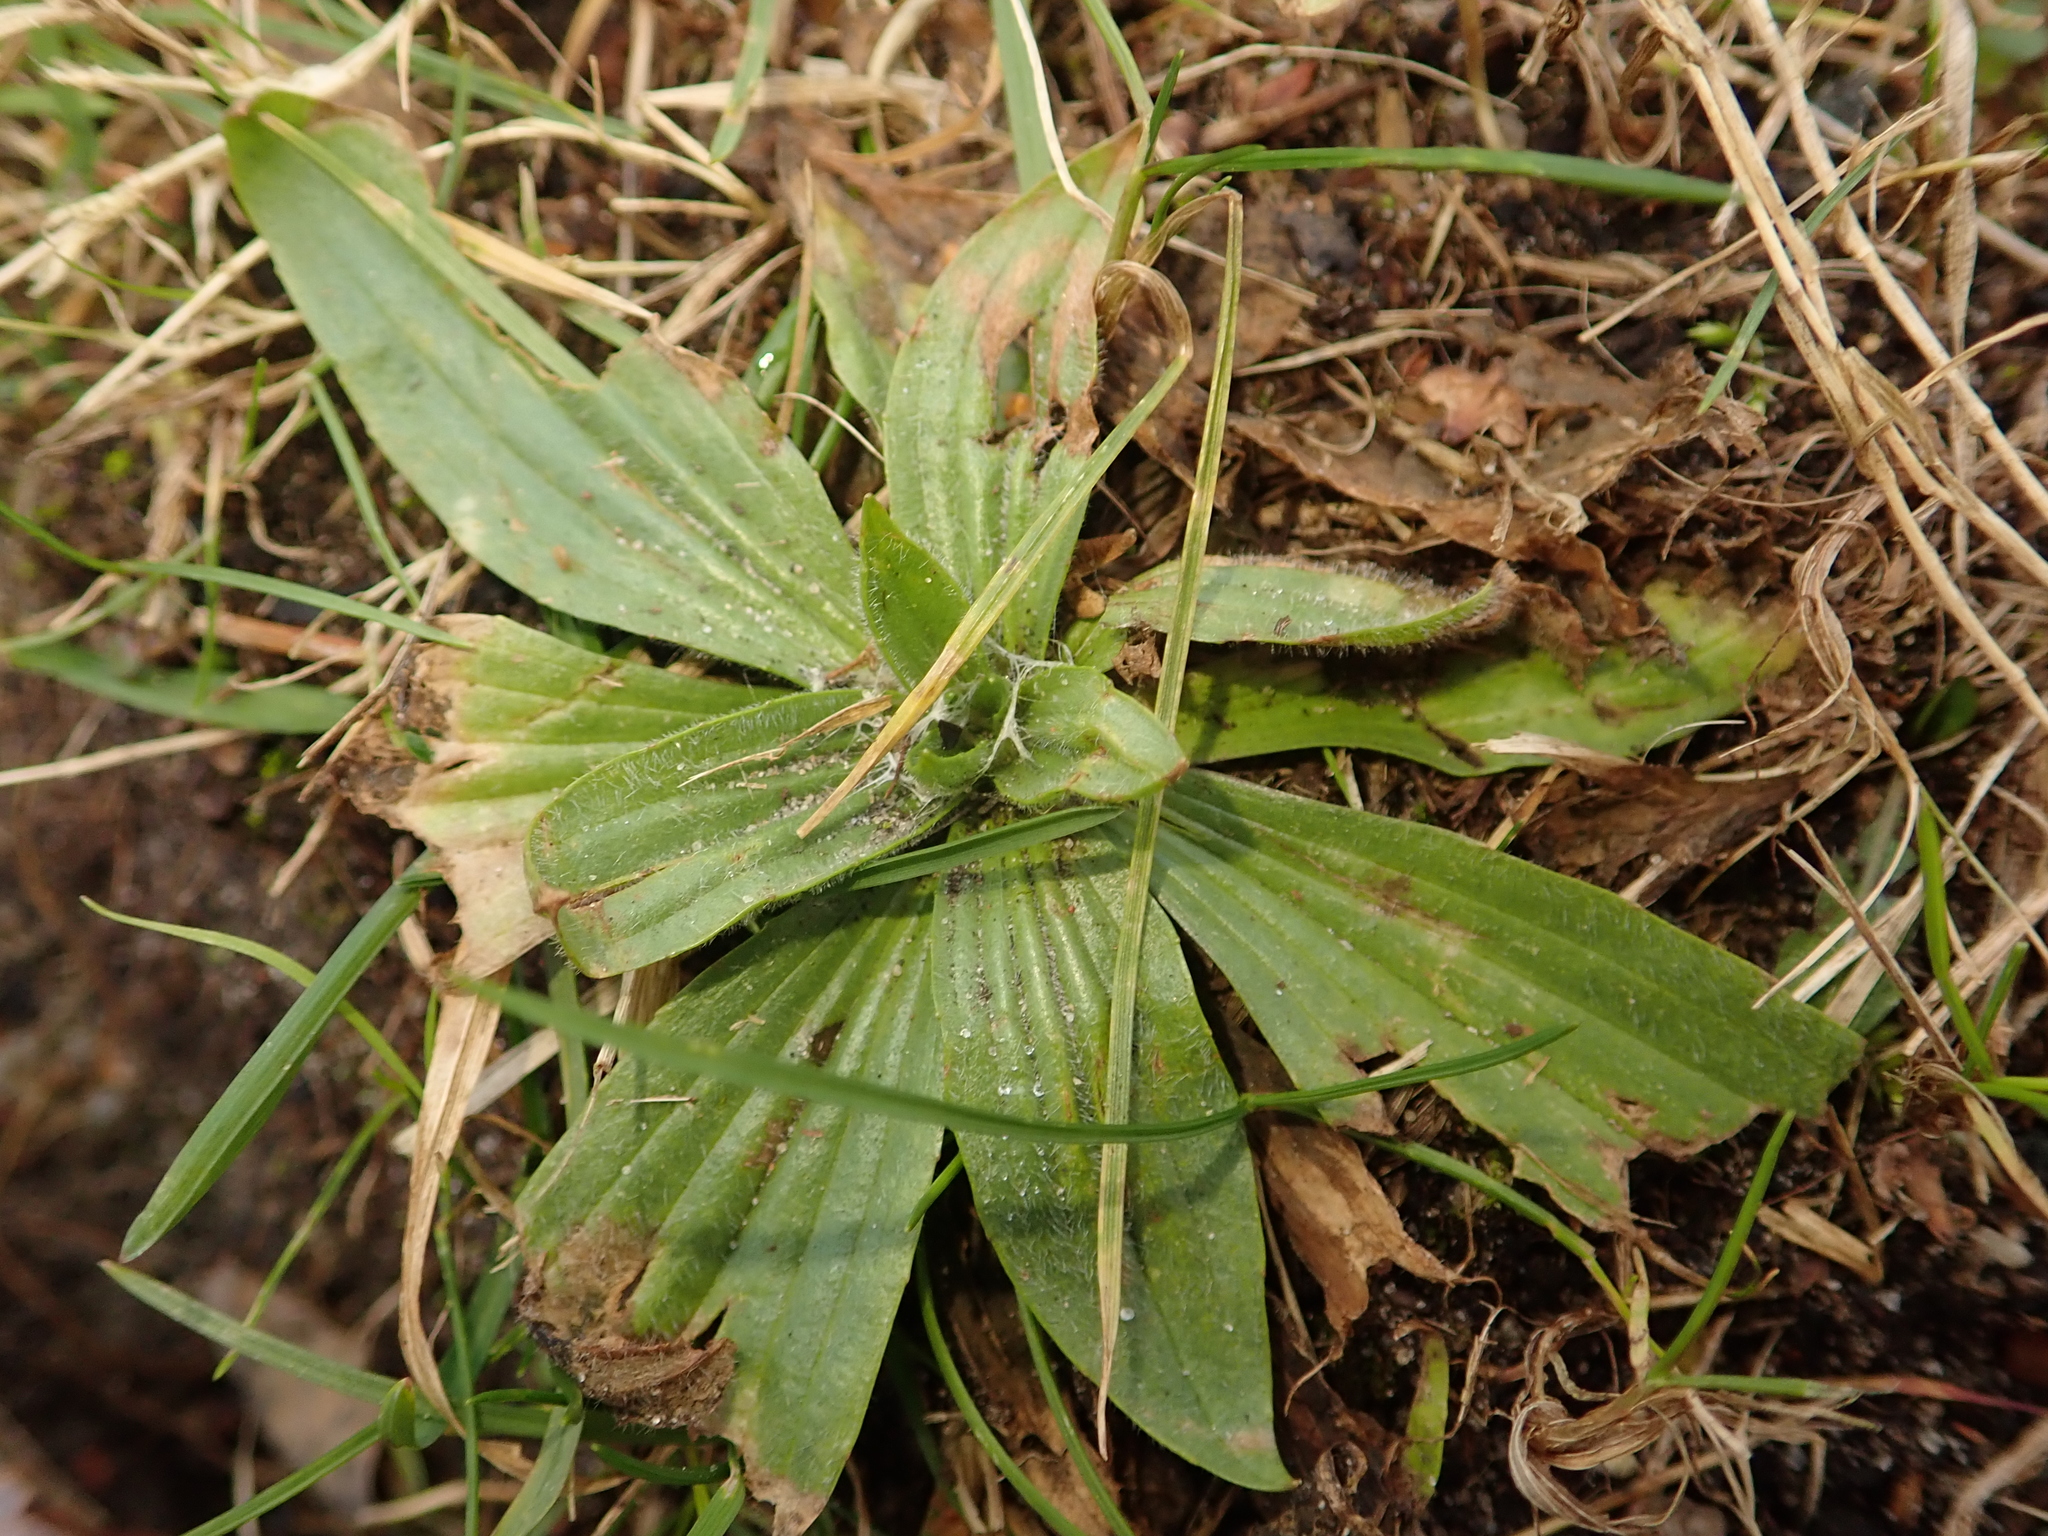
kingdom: Plantae
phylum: Tracheophyta
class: Magnoliopsida
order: Lamiales
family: Plantaginaceae
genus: Plantago
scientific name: Plantago lanceolata
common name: Ribwort plantain
